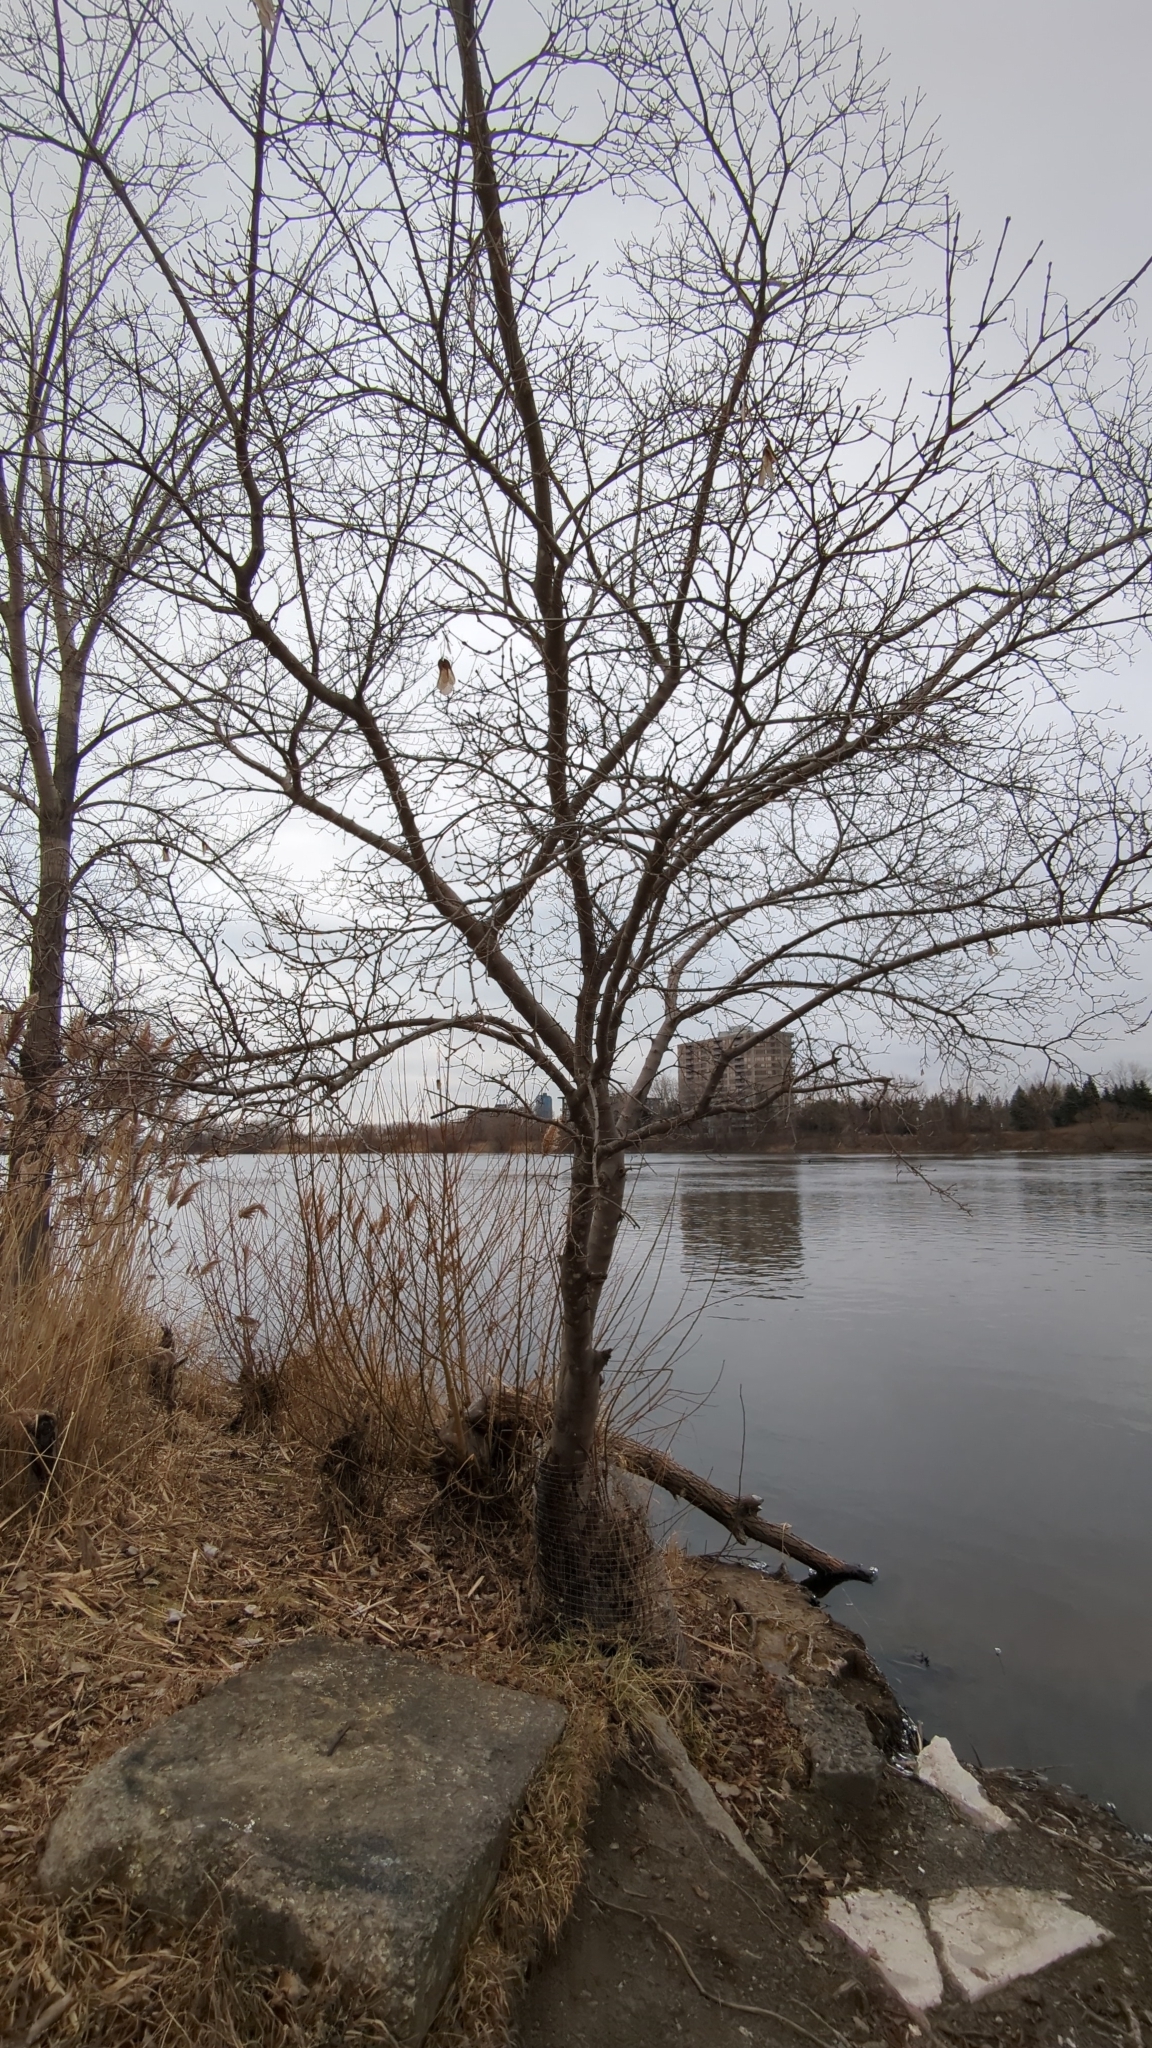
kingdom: Plantae
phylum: Tracheophyta
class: Magnoliopsida
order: Sapindales
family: Sapindaceae
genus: Acer
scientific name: Acer tataricum
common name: Tartar maple
